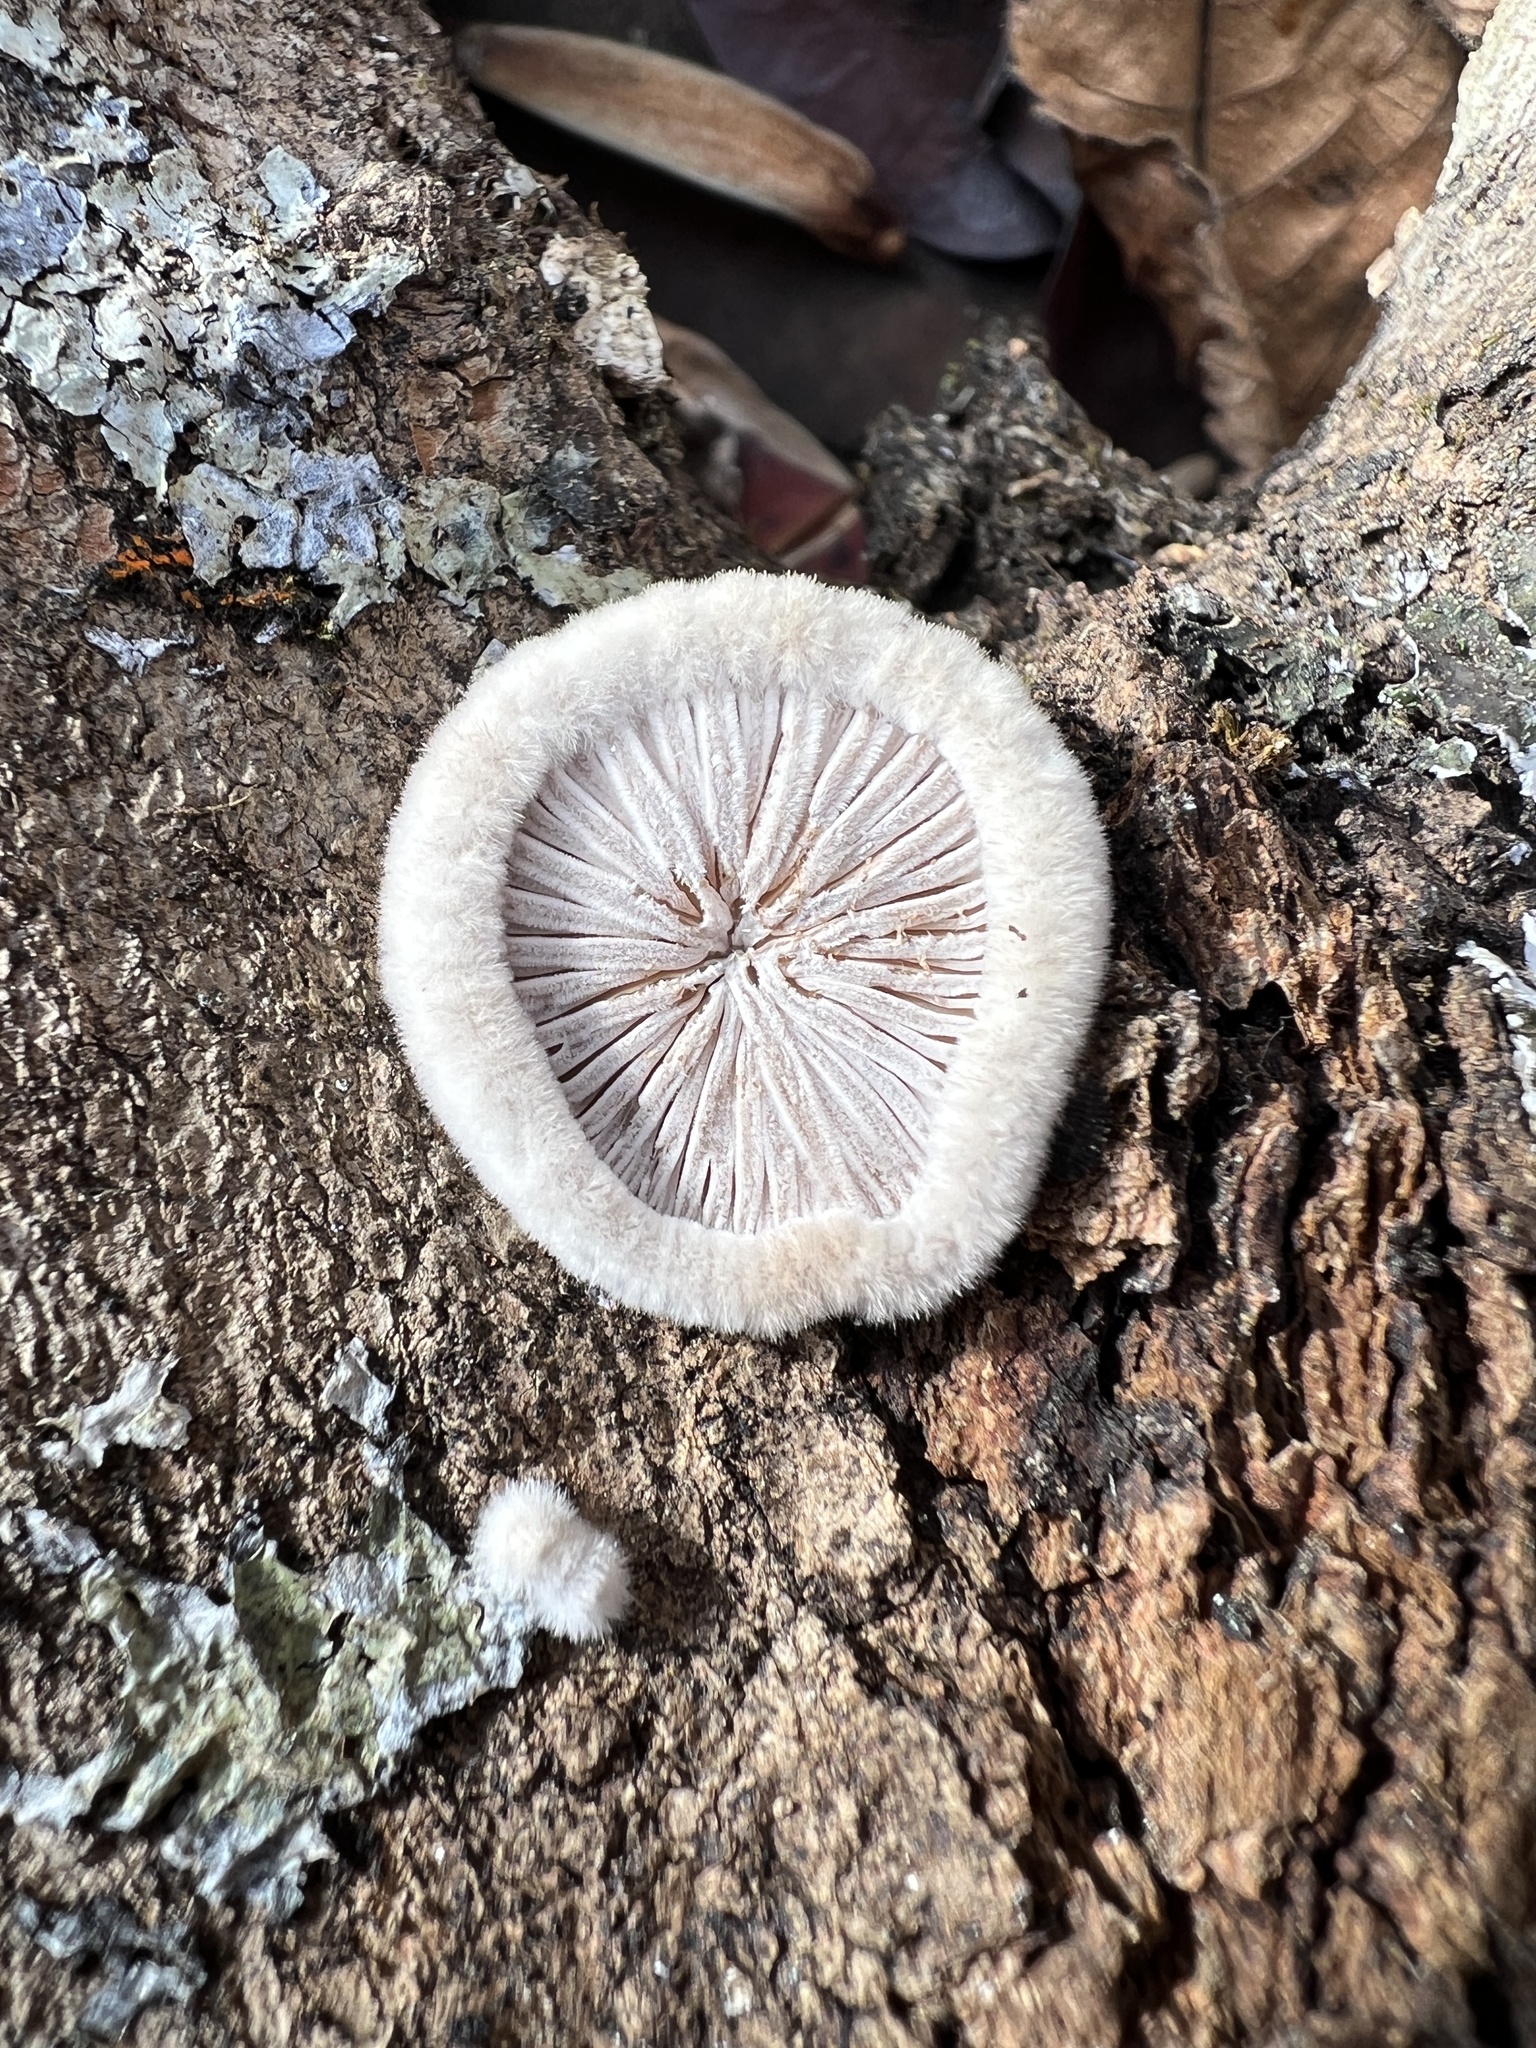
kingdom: Fungi
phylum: Basidiomycota
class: Agaricomycetes
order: Agaricales
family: Schizophyllaceae
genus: Schizophyllum
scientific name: Schizophyllum commune
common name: Common porecrust
